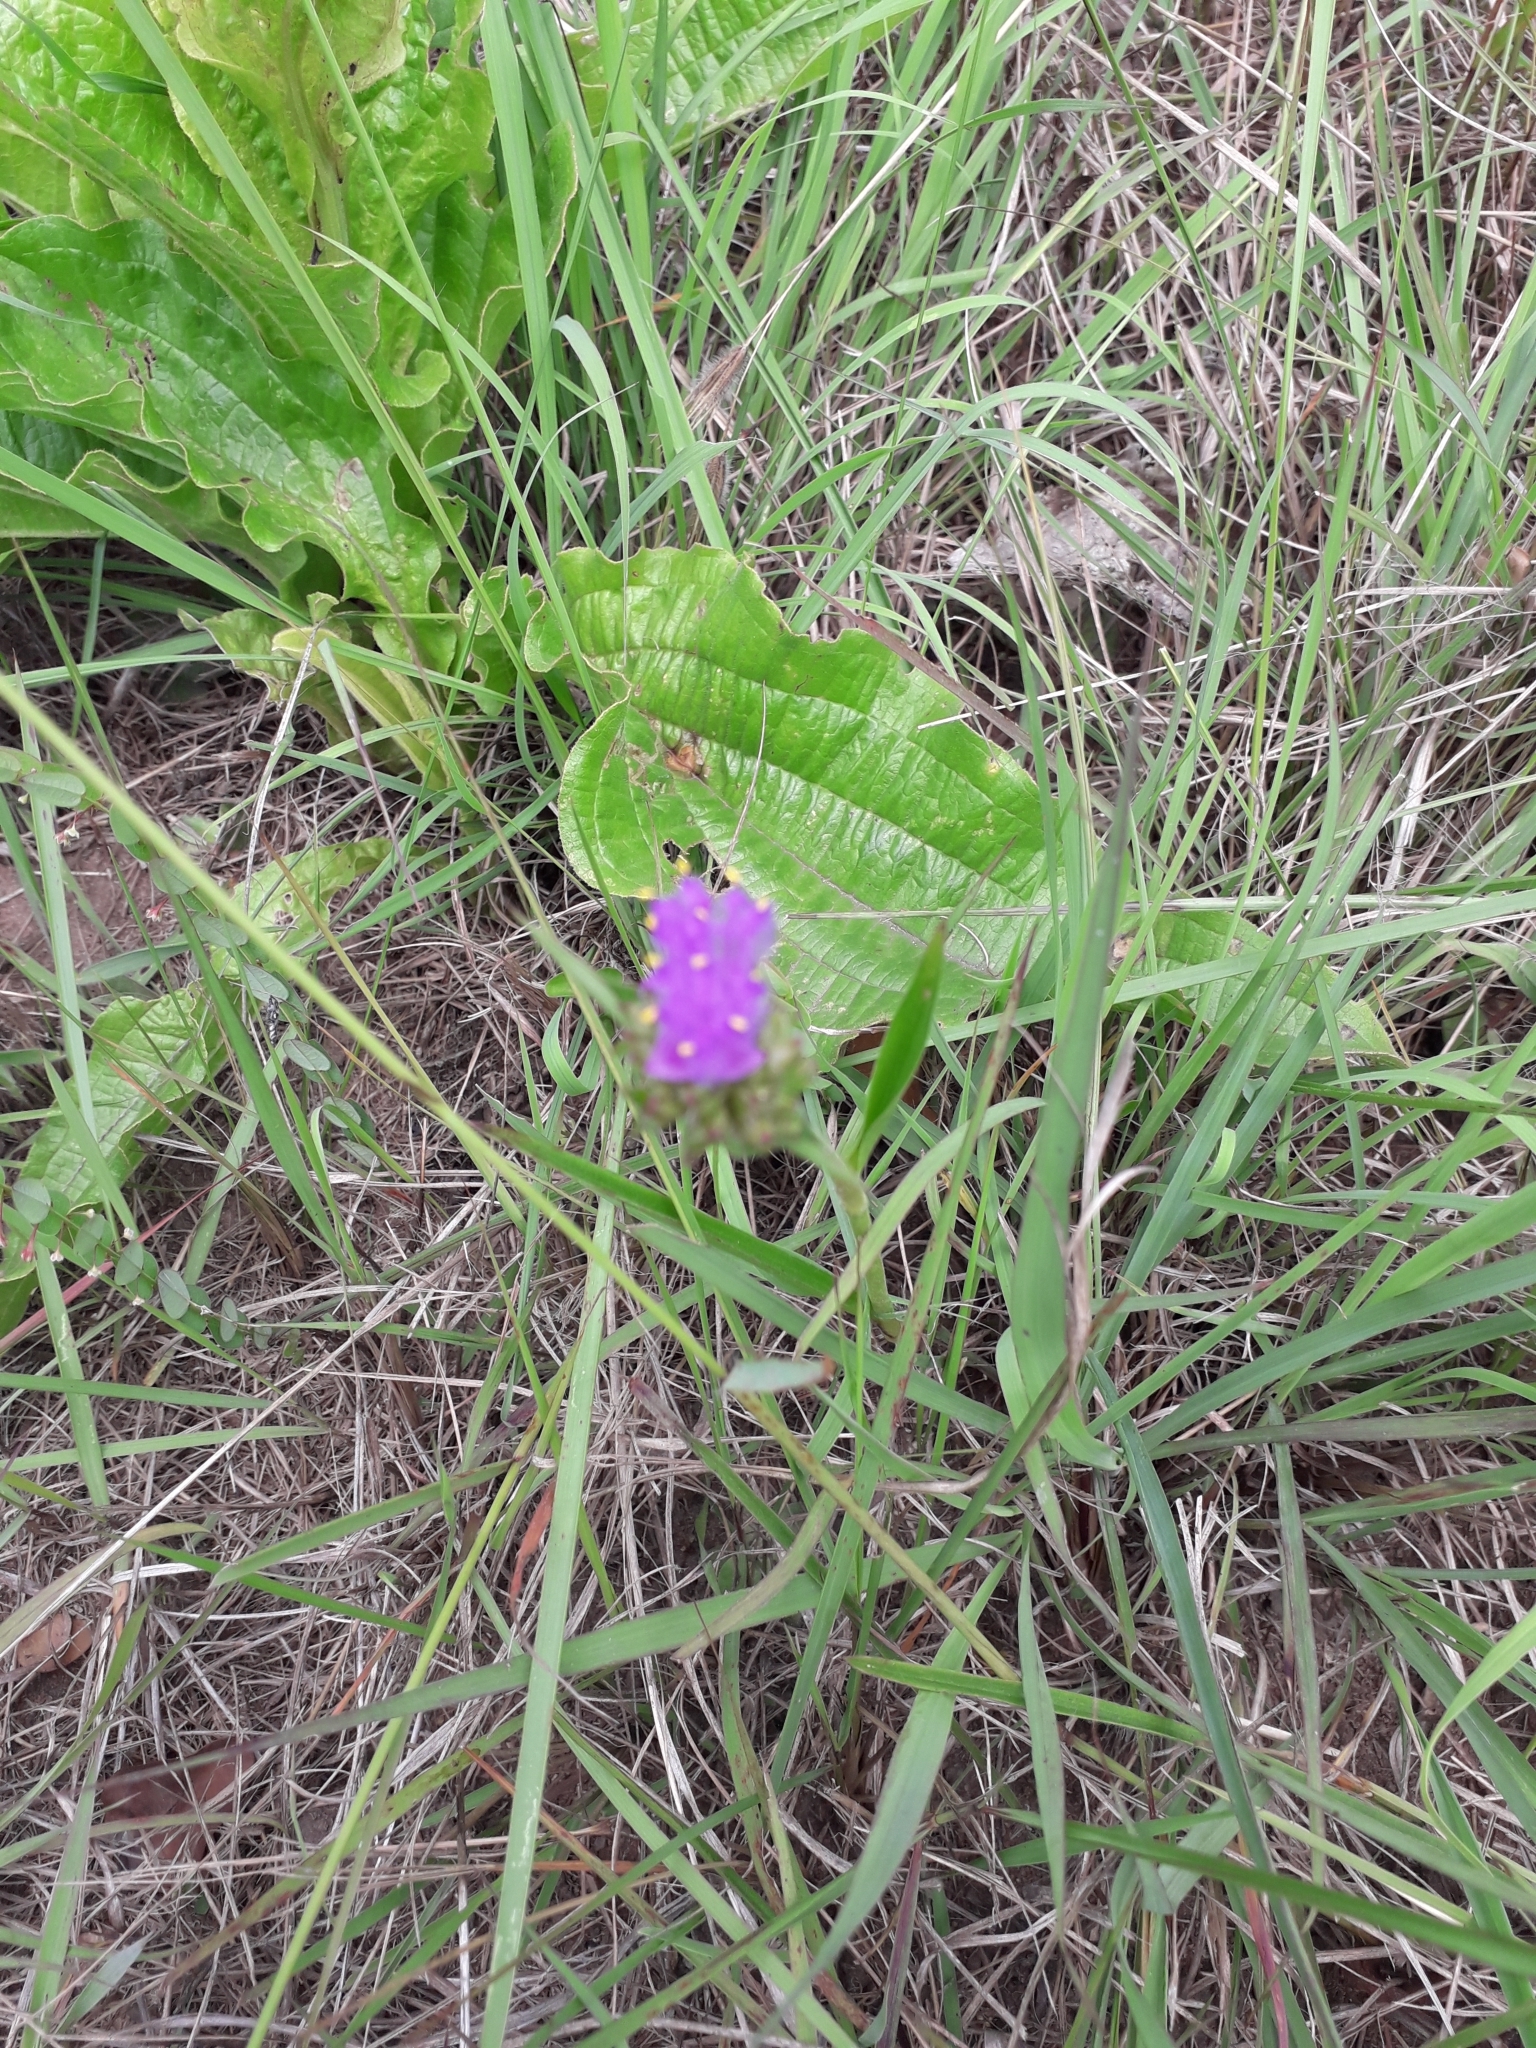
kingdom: Plantae
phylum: Tracheophyta
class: Liliopsida
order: Commelinales
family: Commelinaceae
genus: Cyanotis
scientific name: Cyanotis speciosa
